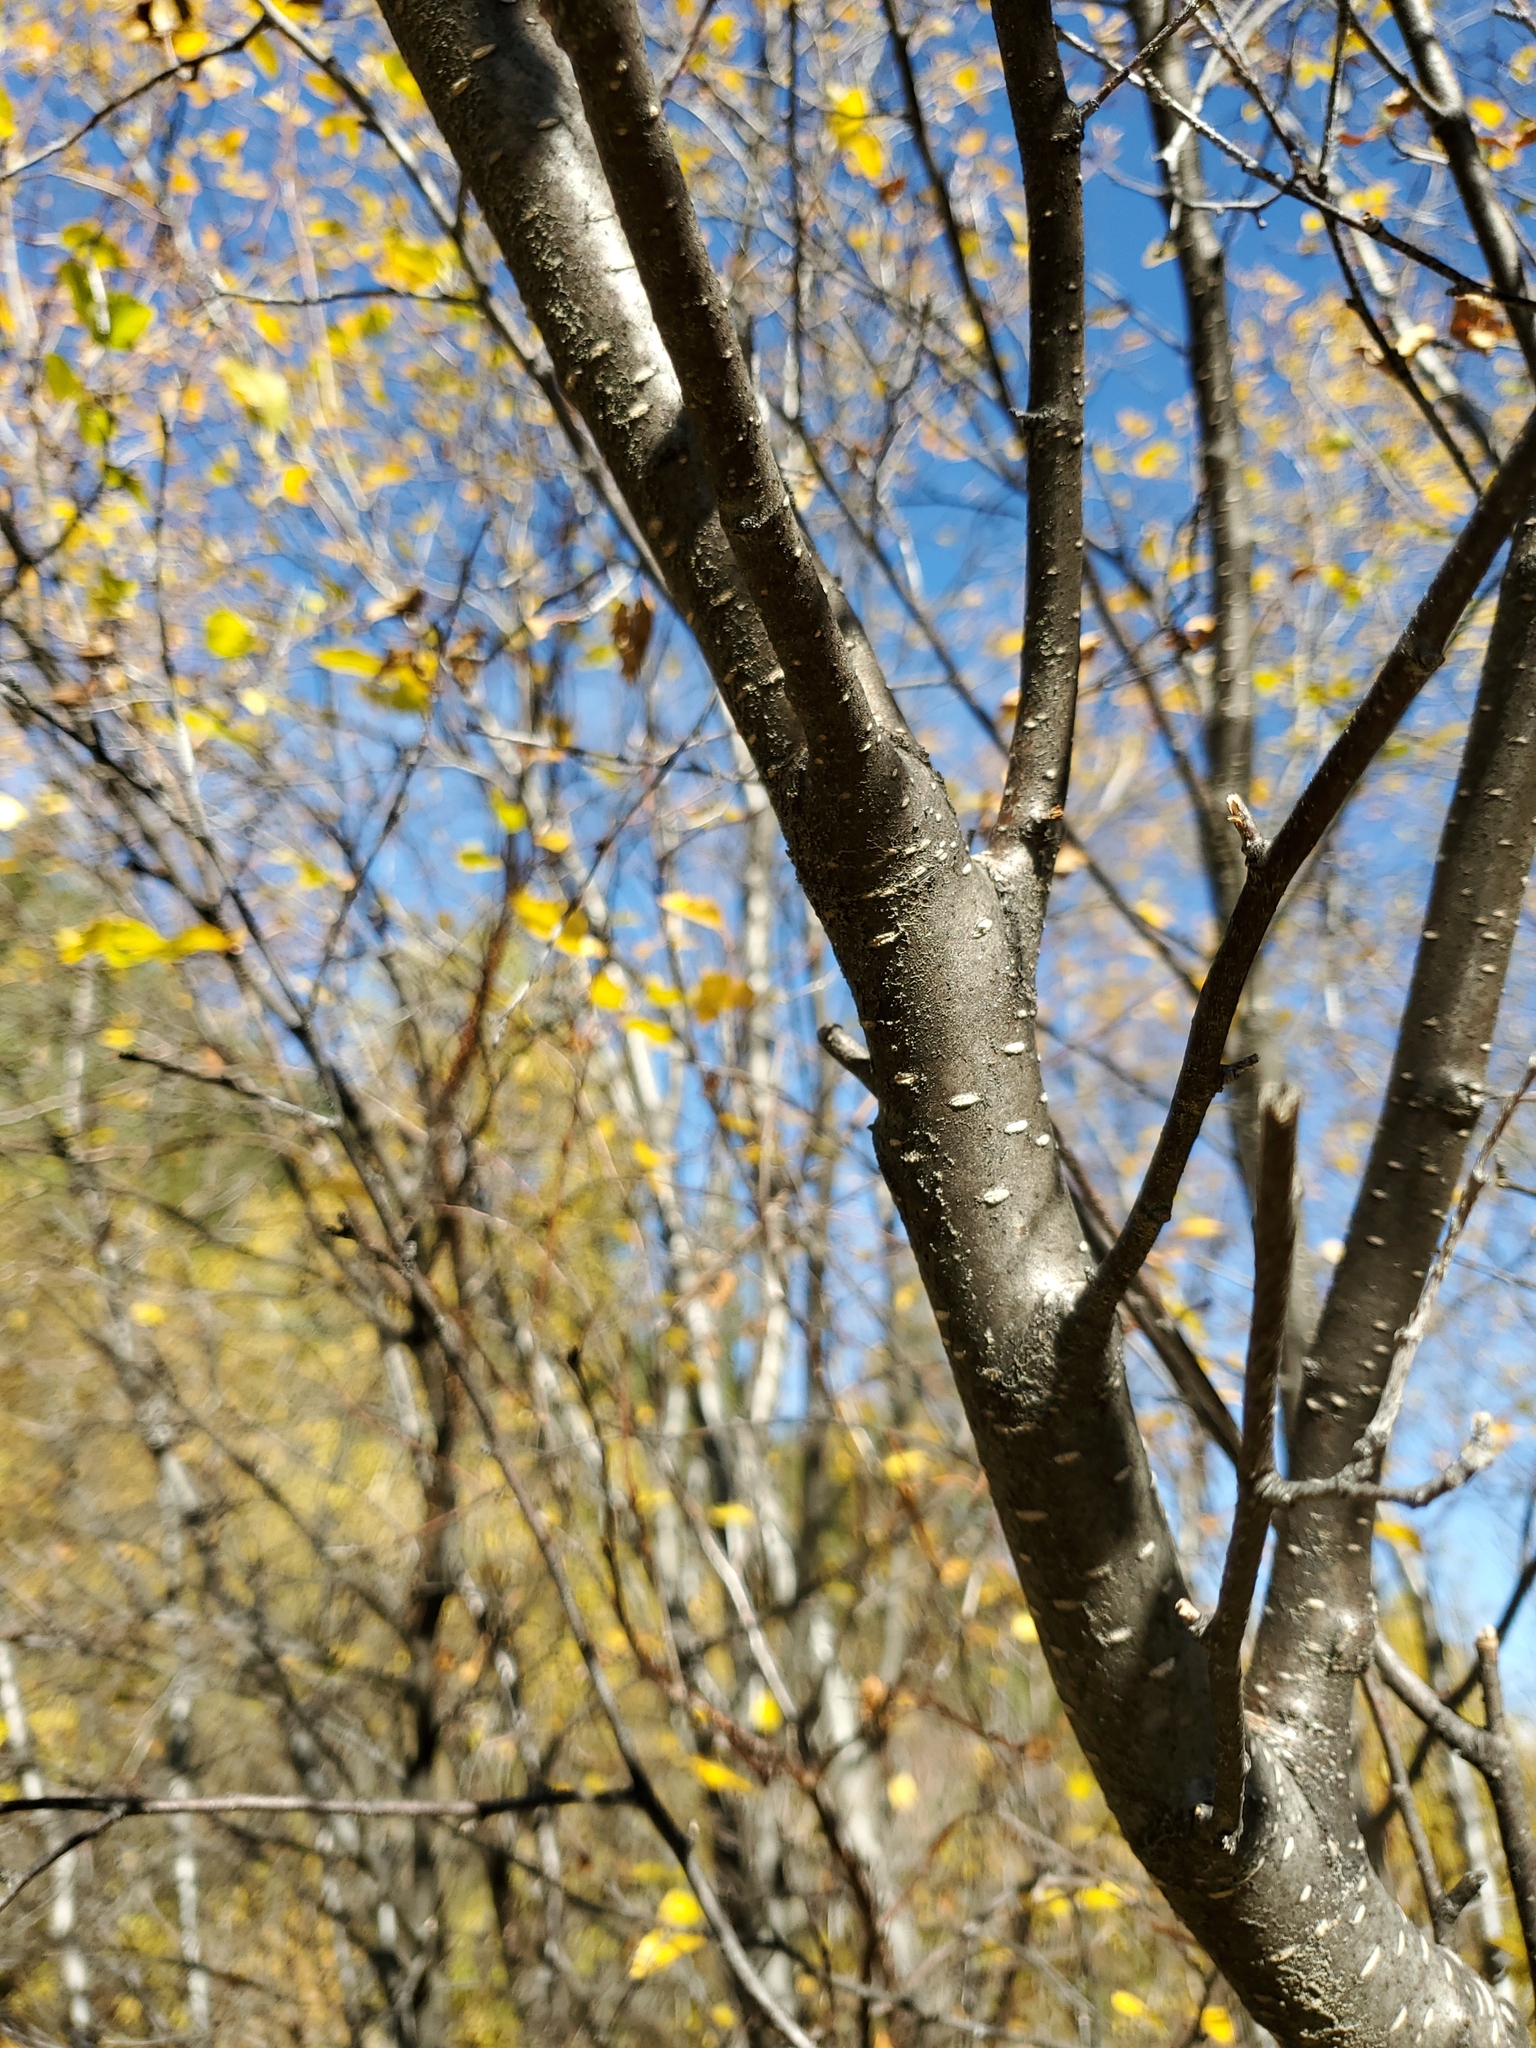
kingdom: Plantae
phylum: Tracheophyta
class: Magnoliopsida
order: Fagales
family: Betulaceae
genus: Betula
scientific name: Betula occidentalis
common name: River birch
